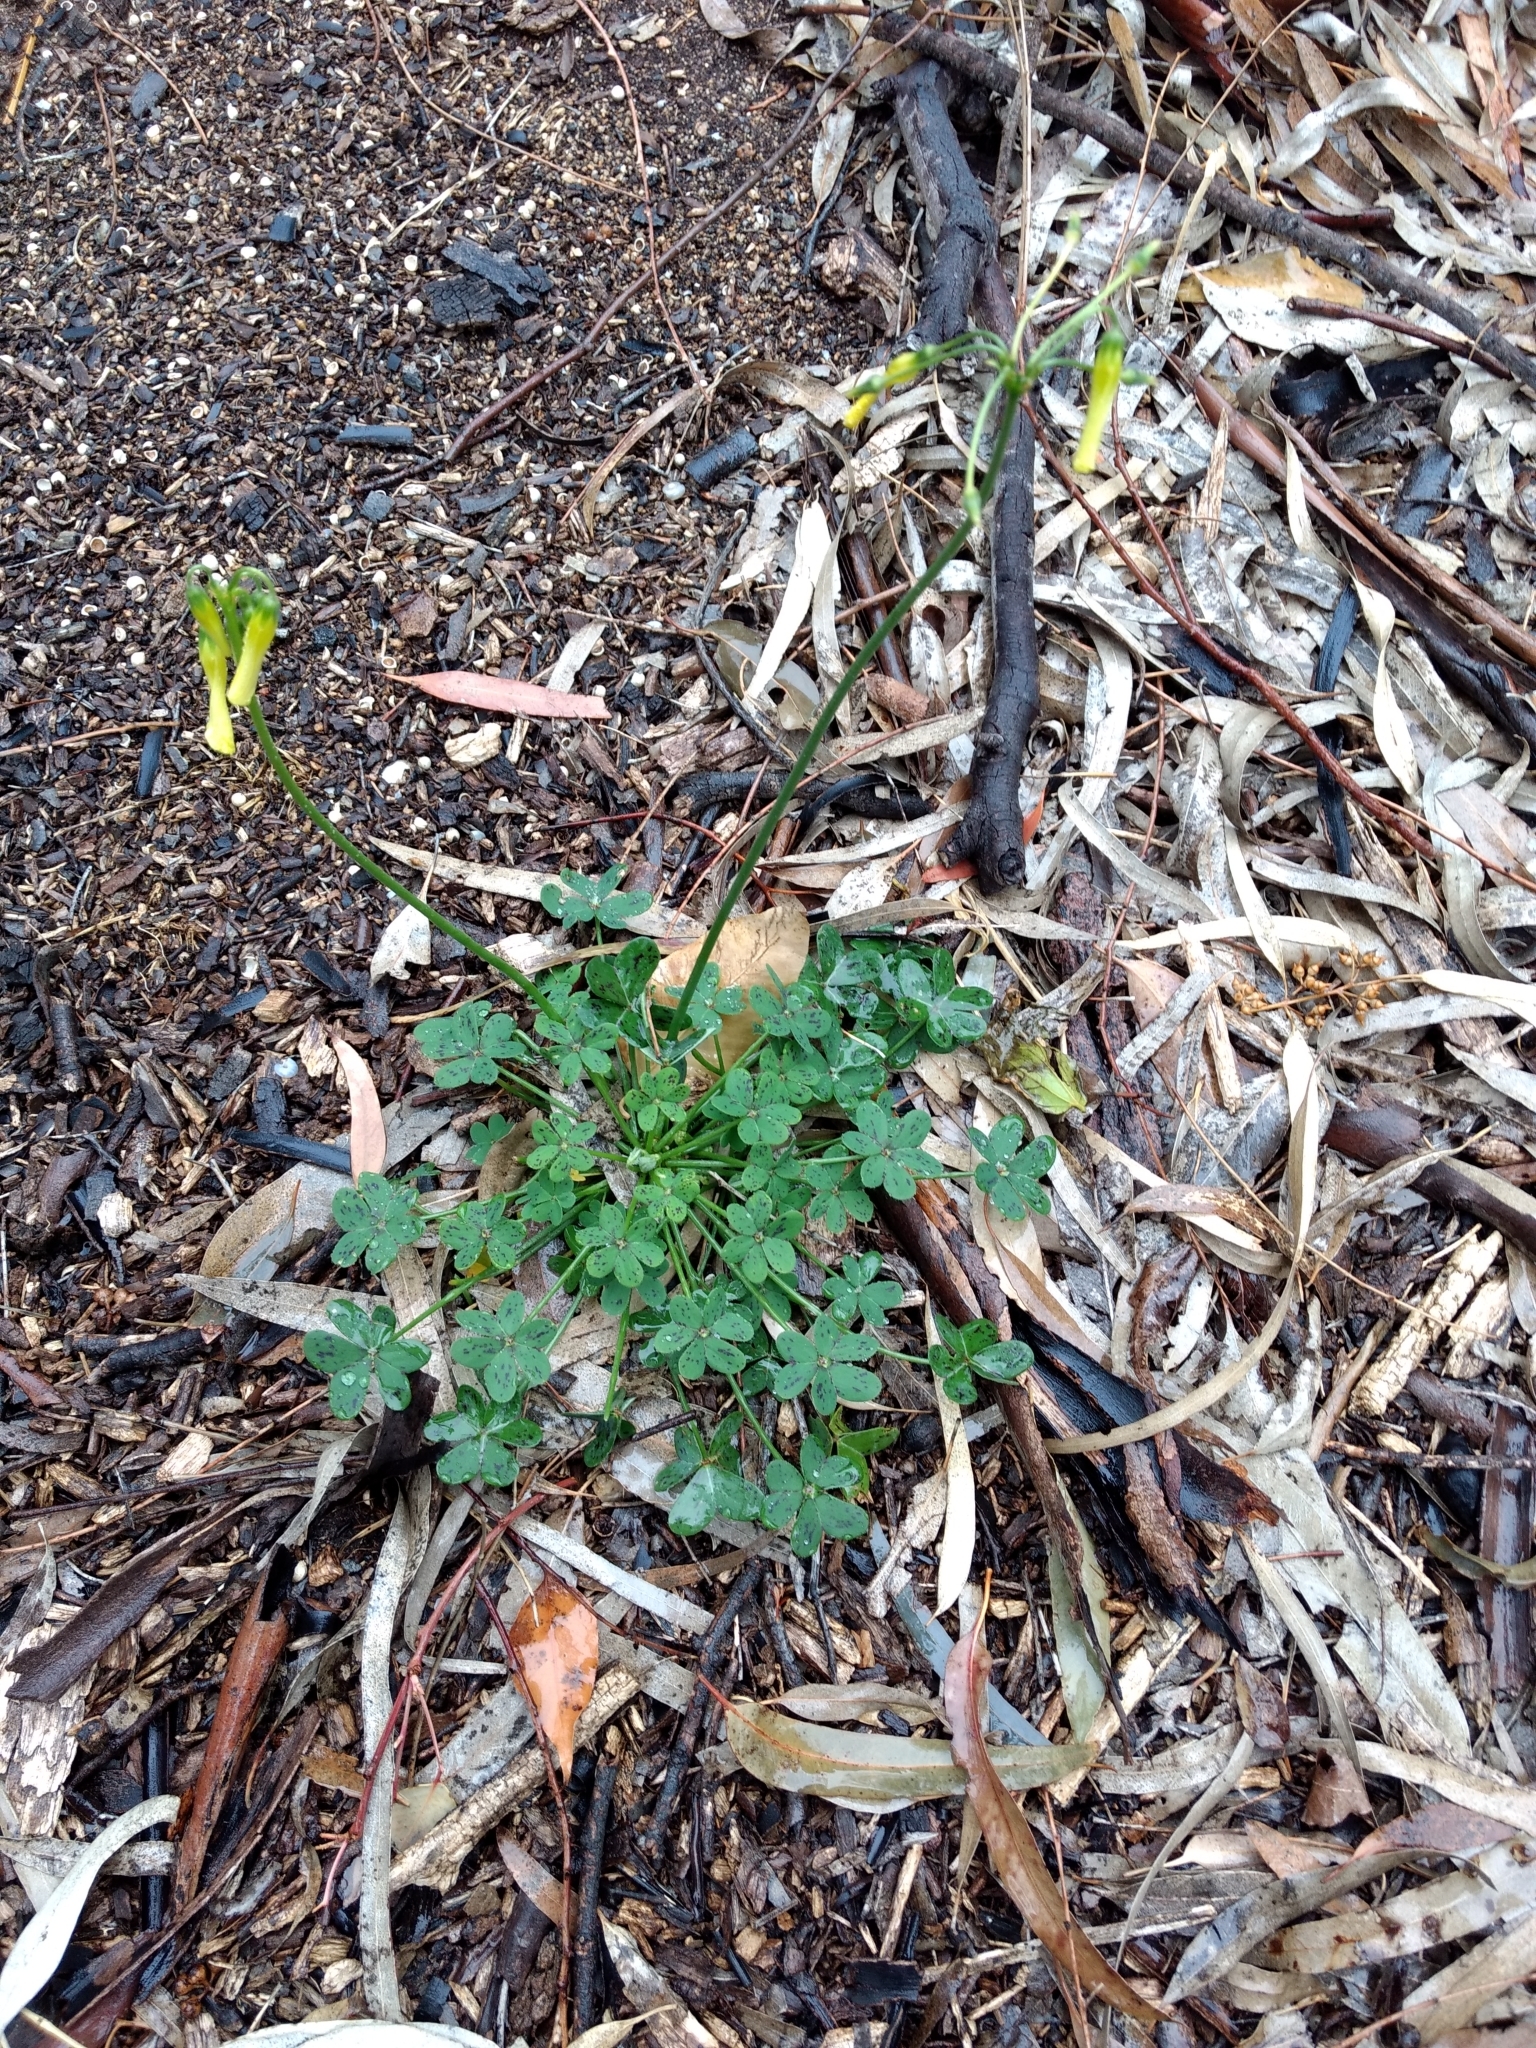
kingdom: Plantae
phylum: Tracheophyta
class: Magnoliopsida
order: Oxalidales
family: Oxalidaceae
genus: Oxalis
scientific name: Oxalis pes-caprae
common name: Bermuda-buttercup
